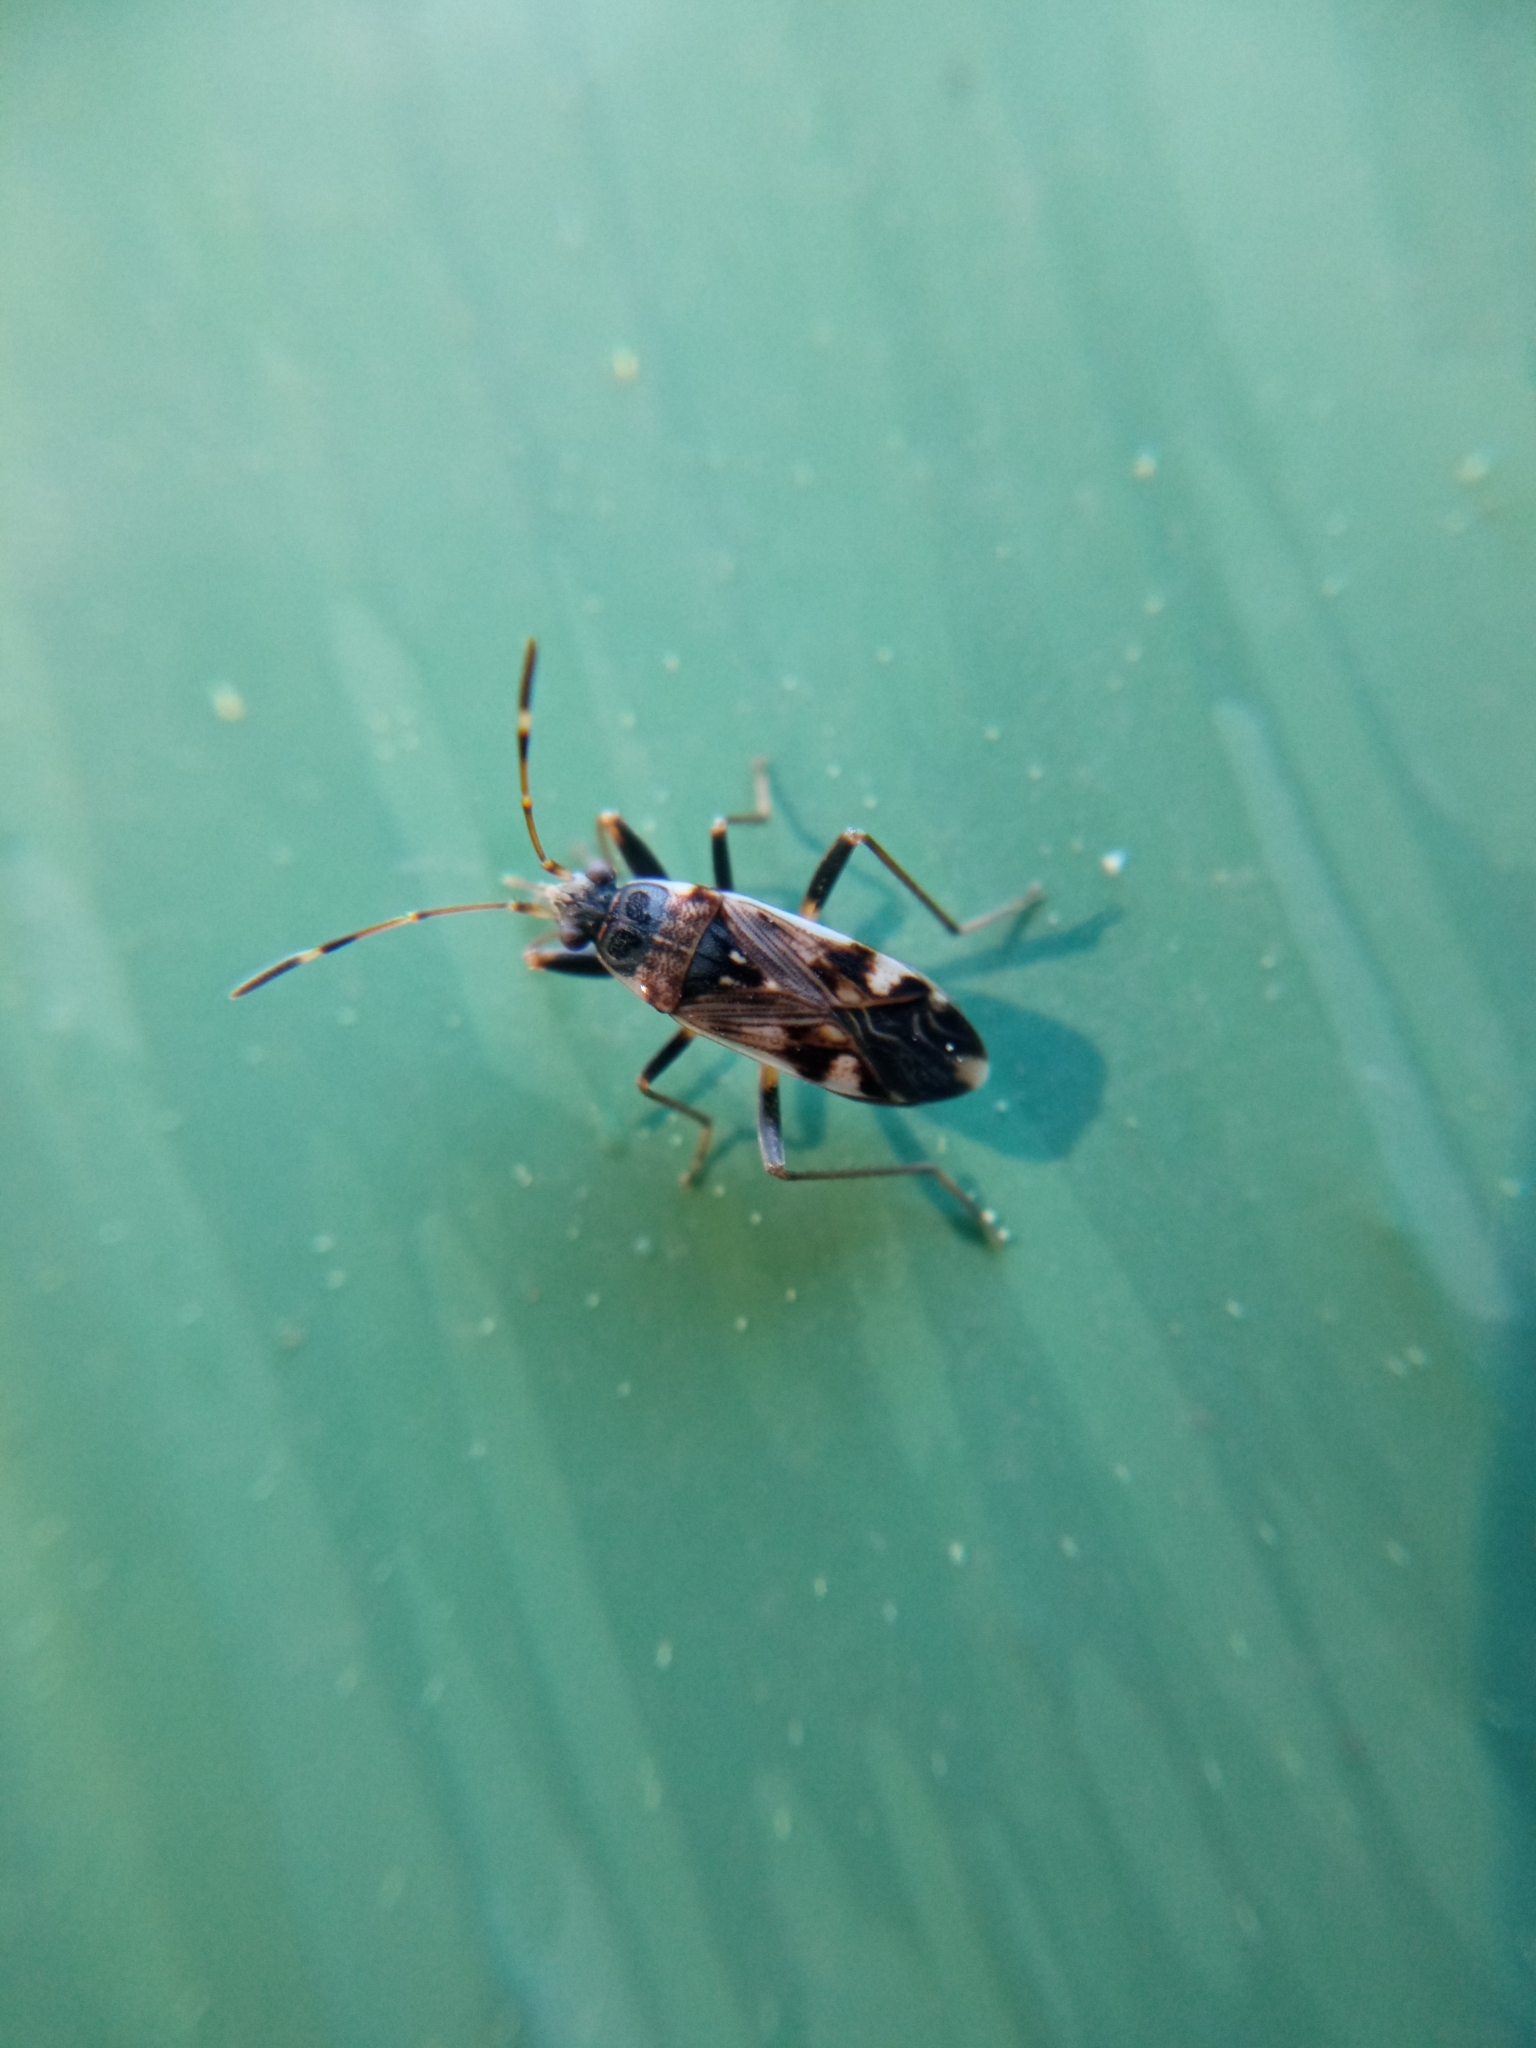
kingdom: Animalia
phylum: Arthropoda
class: Insecta
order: Hemiptera
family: Rhyparochromidae
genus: Beosus
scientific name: Beosus maritimus
